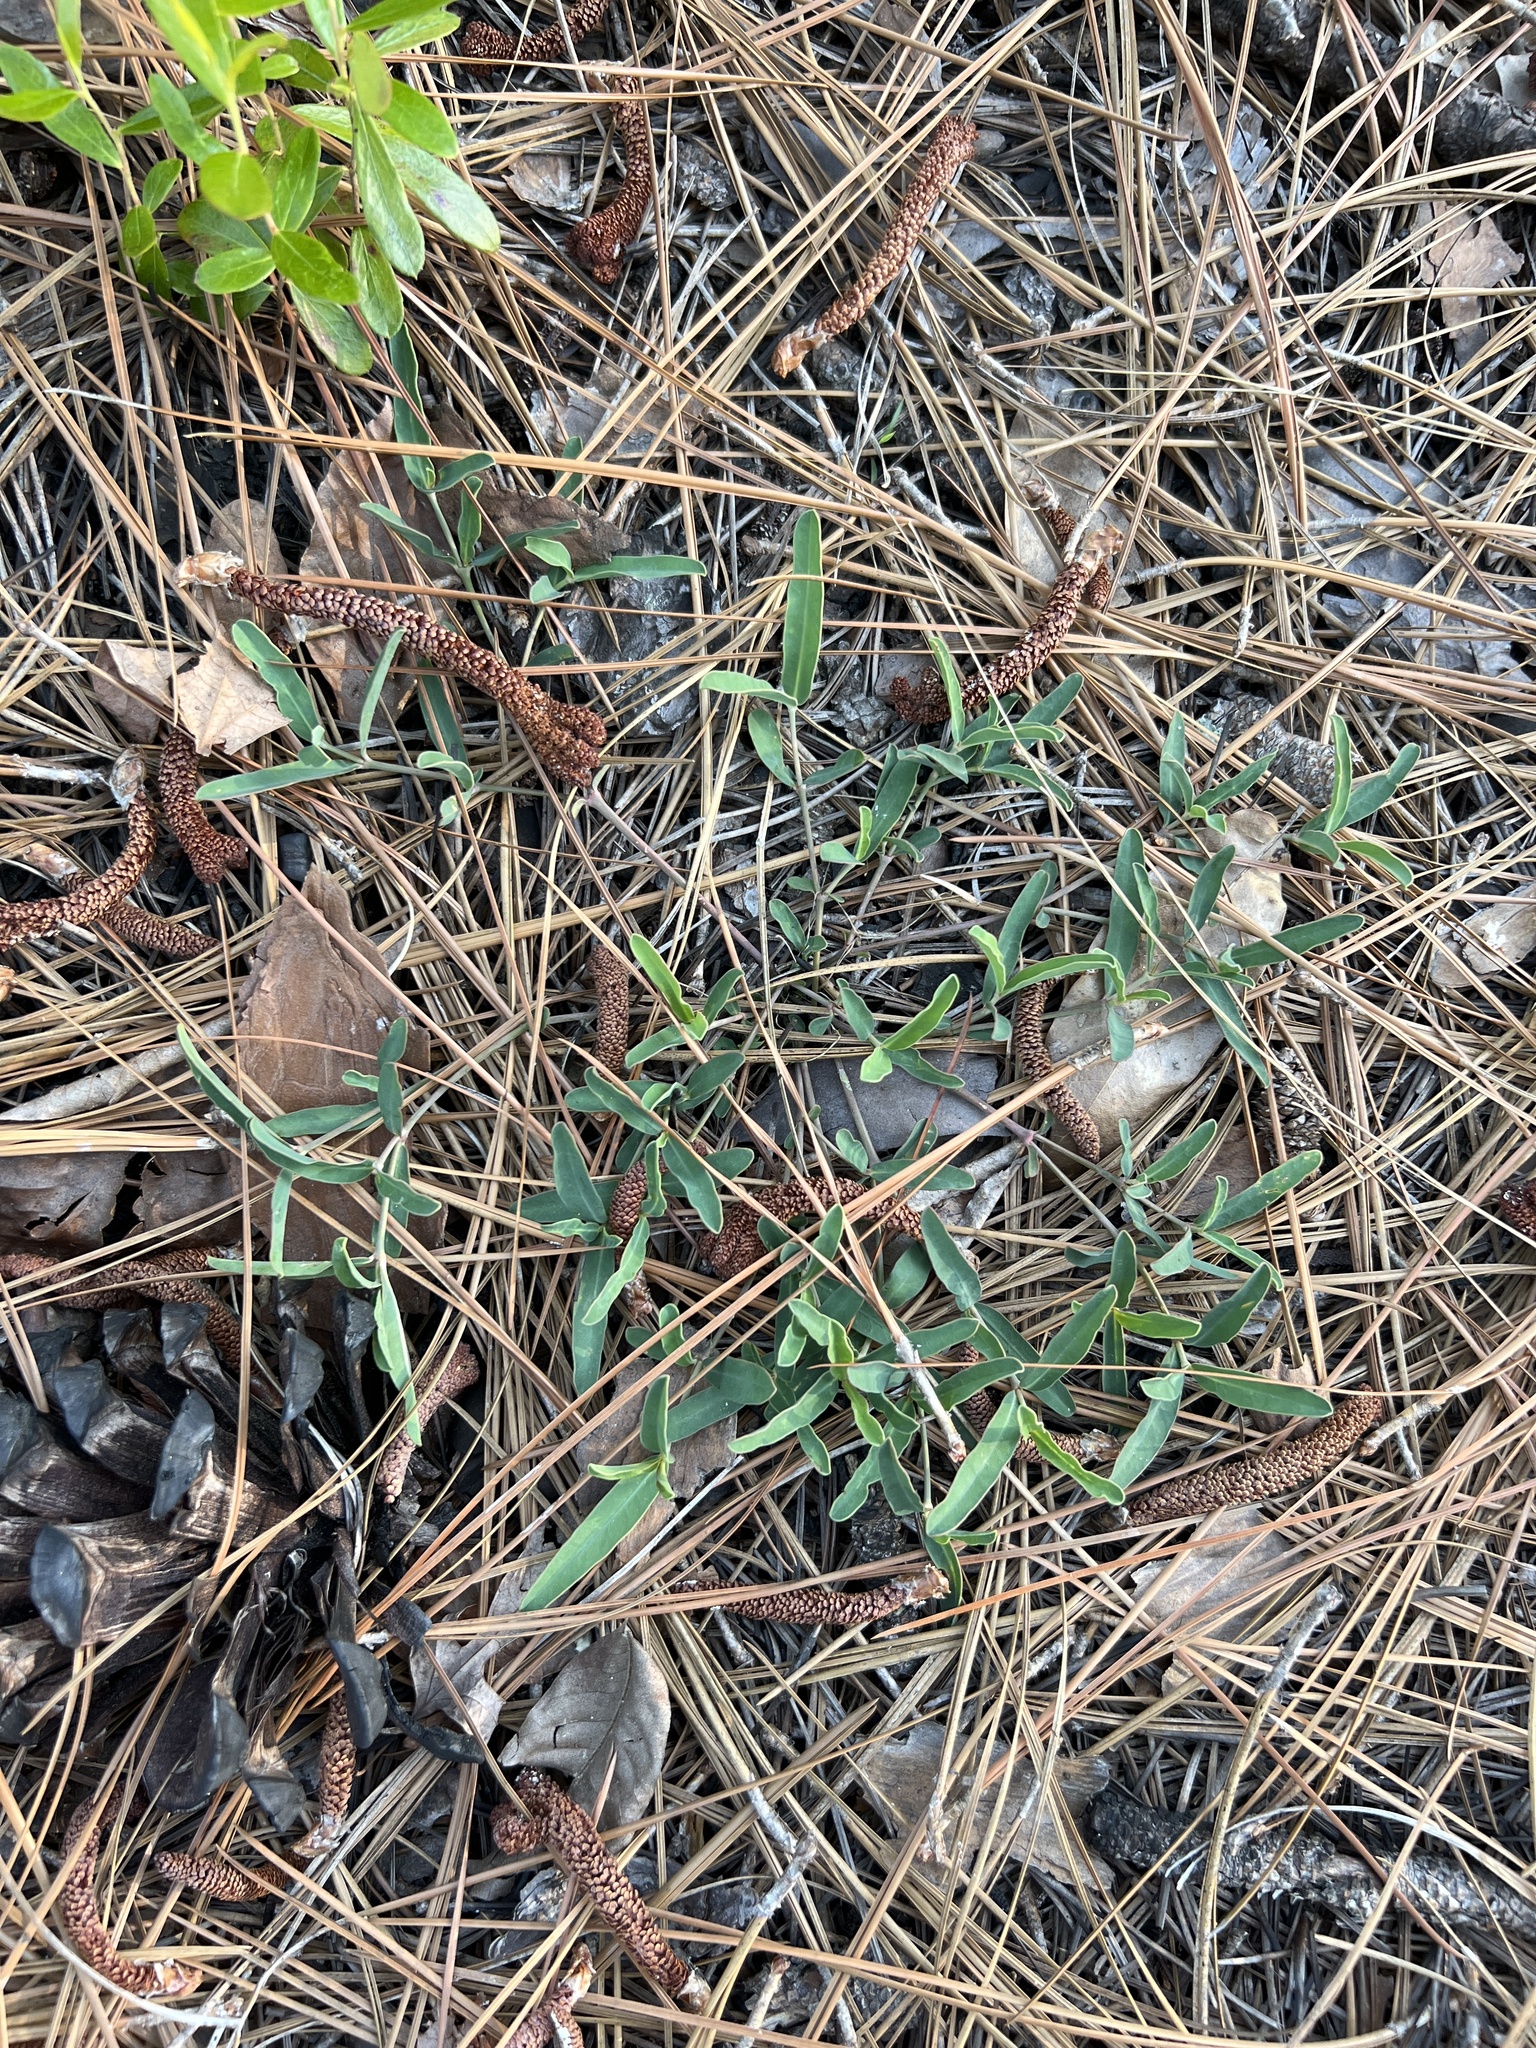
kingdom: Plantae
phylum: Tracheophyta
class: Magnoliopsida
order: Malpighiales
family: Euphorbiaceae
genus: Euphorbia
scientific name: Euphorbia ipecacuanhae
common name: Carolina ipecac
